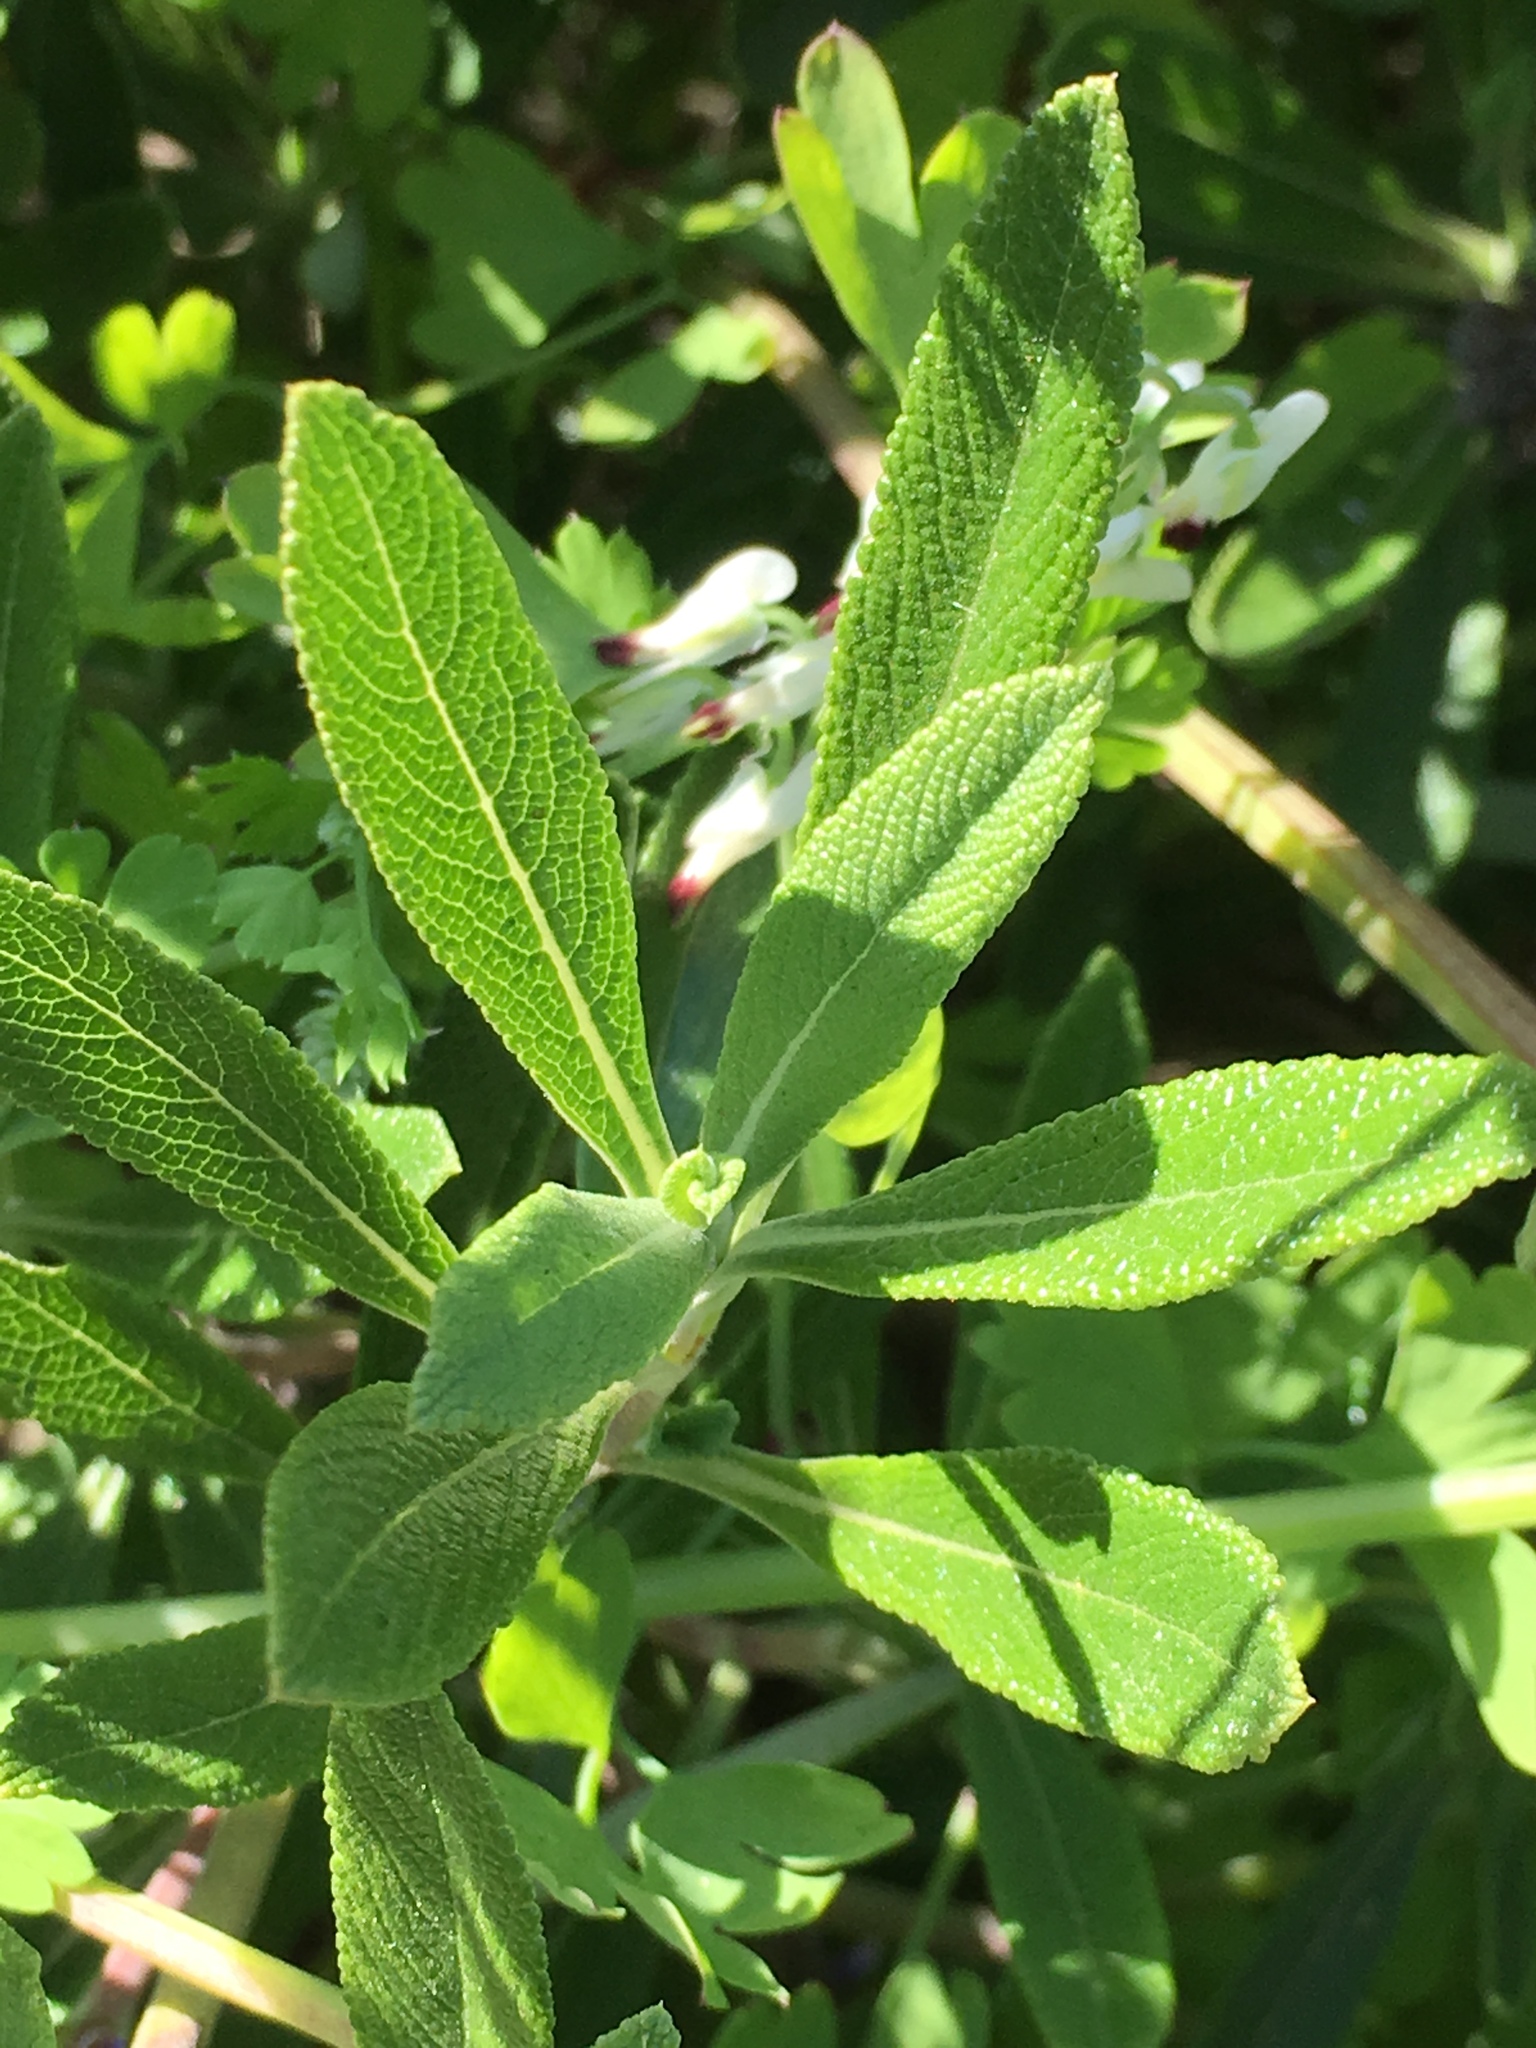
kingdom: Plantae
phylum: Tracheophyta
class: Magnoliopsida
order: Lamiales
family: Lamiaceae
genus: Salvia
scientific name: Salvia mellifera
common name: Black sage
